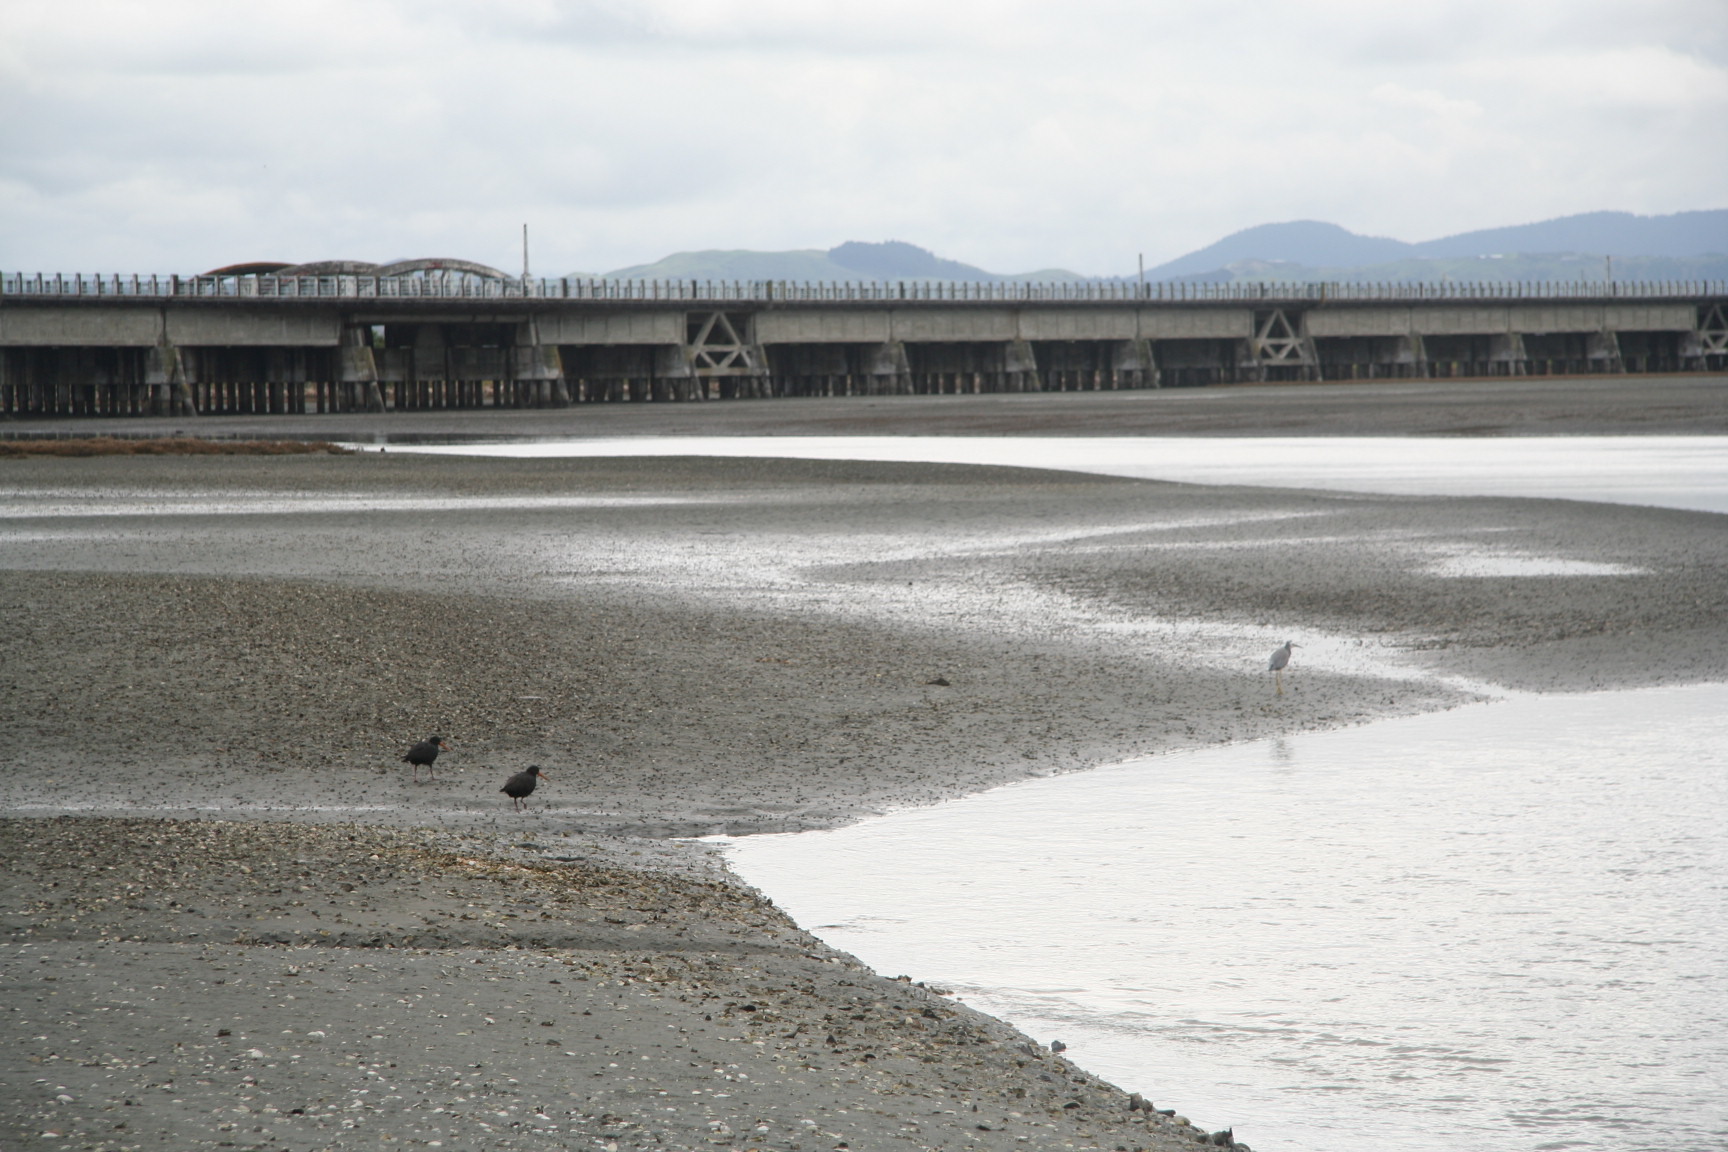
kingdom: Animalia
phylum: Chordata
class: Aves
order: Charadriiformes
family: Haematopodidae
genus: Haematopus
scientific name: Haematopus unicolor
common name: Variable oystercatcher
